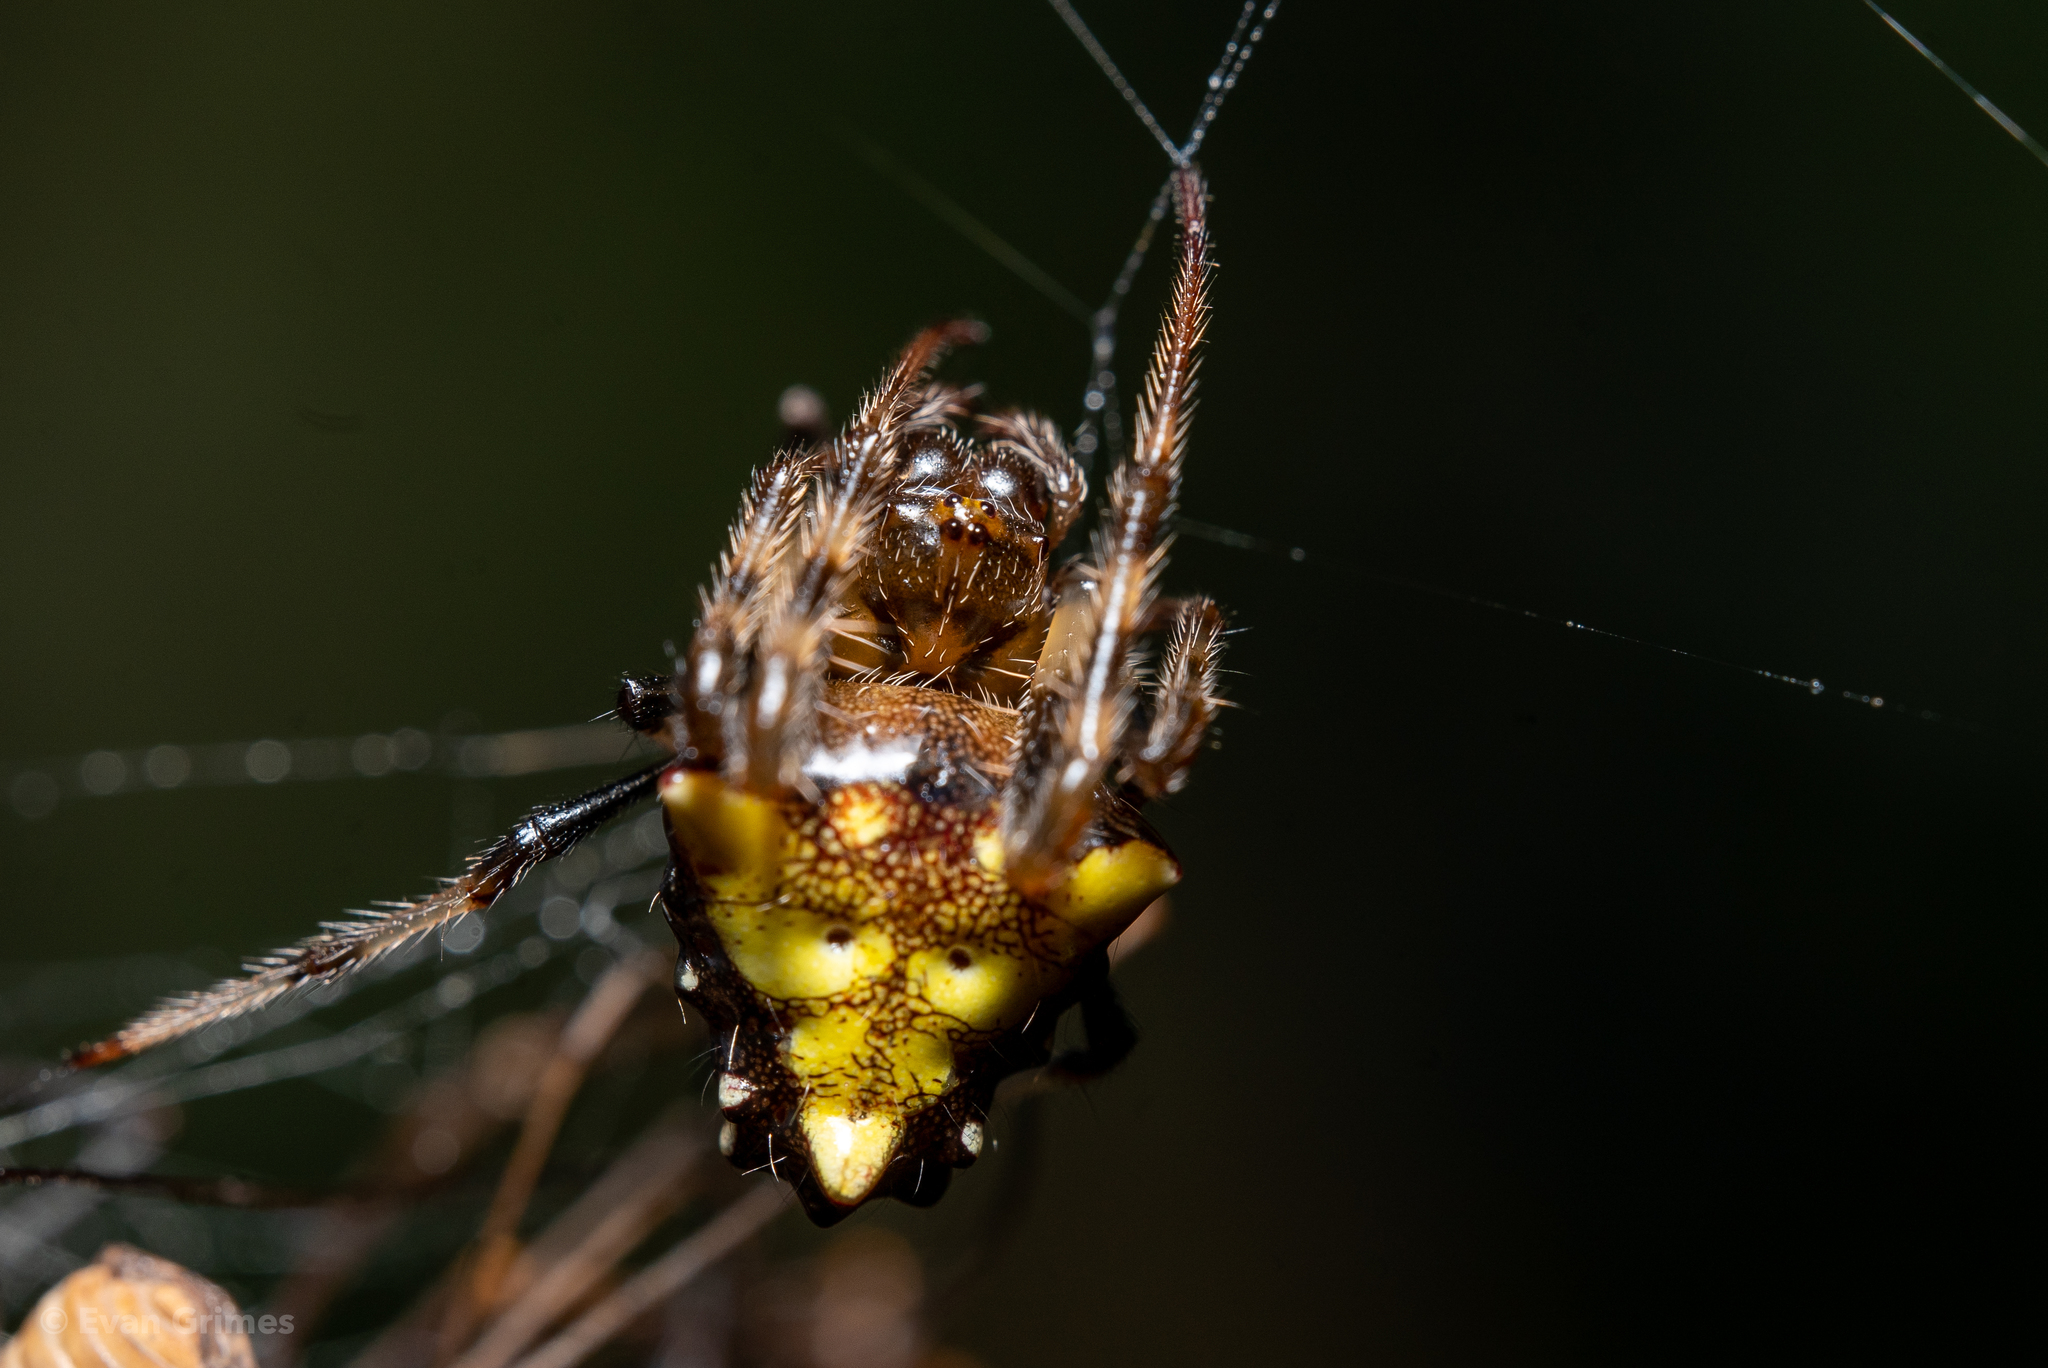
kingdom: Animalia
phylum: Arthropoda
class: Arachnida
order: Araneae
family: Araneidae
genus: Verrucosa
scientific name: Verrucosa arenata
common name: Orb weavers
